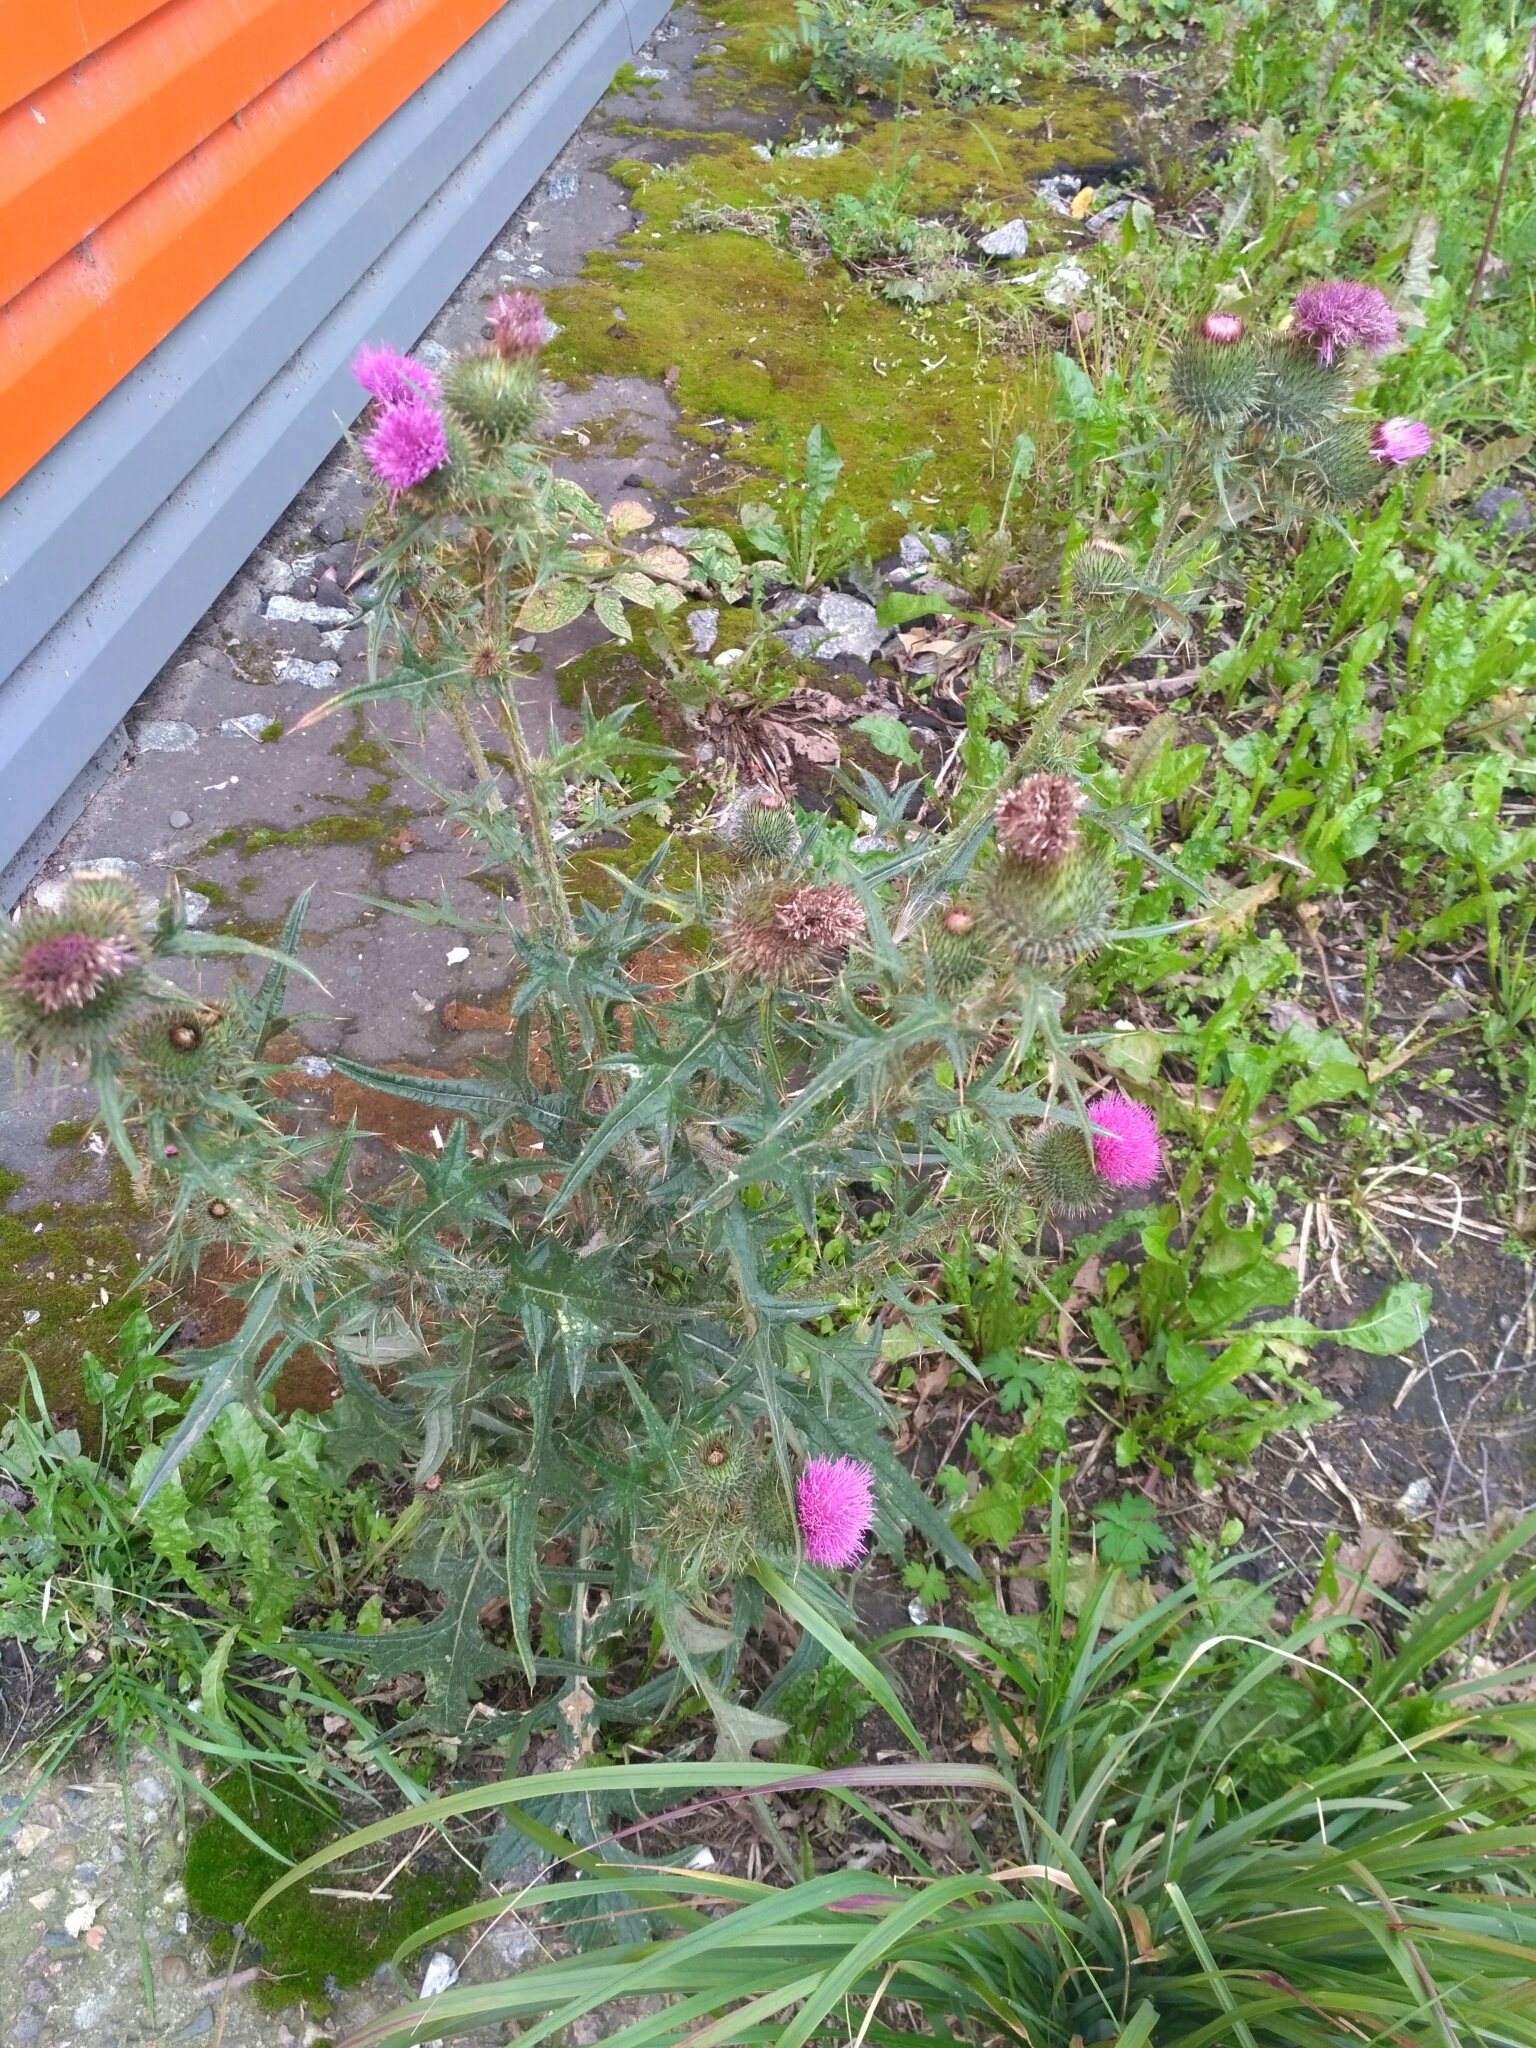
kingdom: Plantae
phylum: Tracheophyta
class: Magnoliopsida
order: Asterales
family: Asteraceae
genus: Cirsium
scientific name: Cirsium vulgare
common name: Bull thistle
